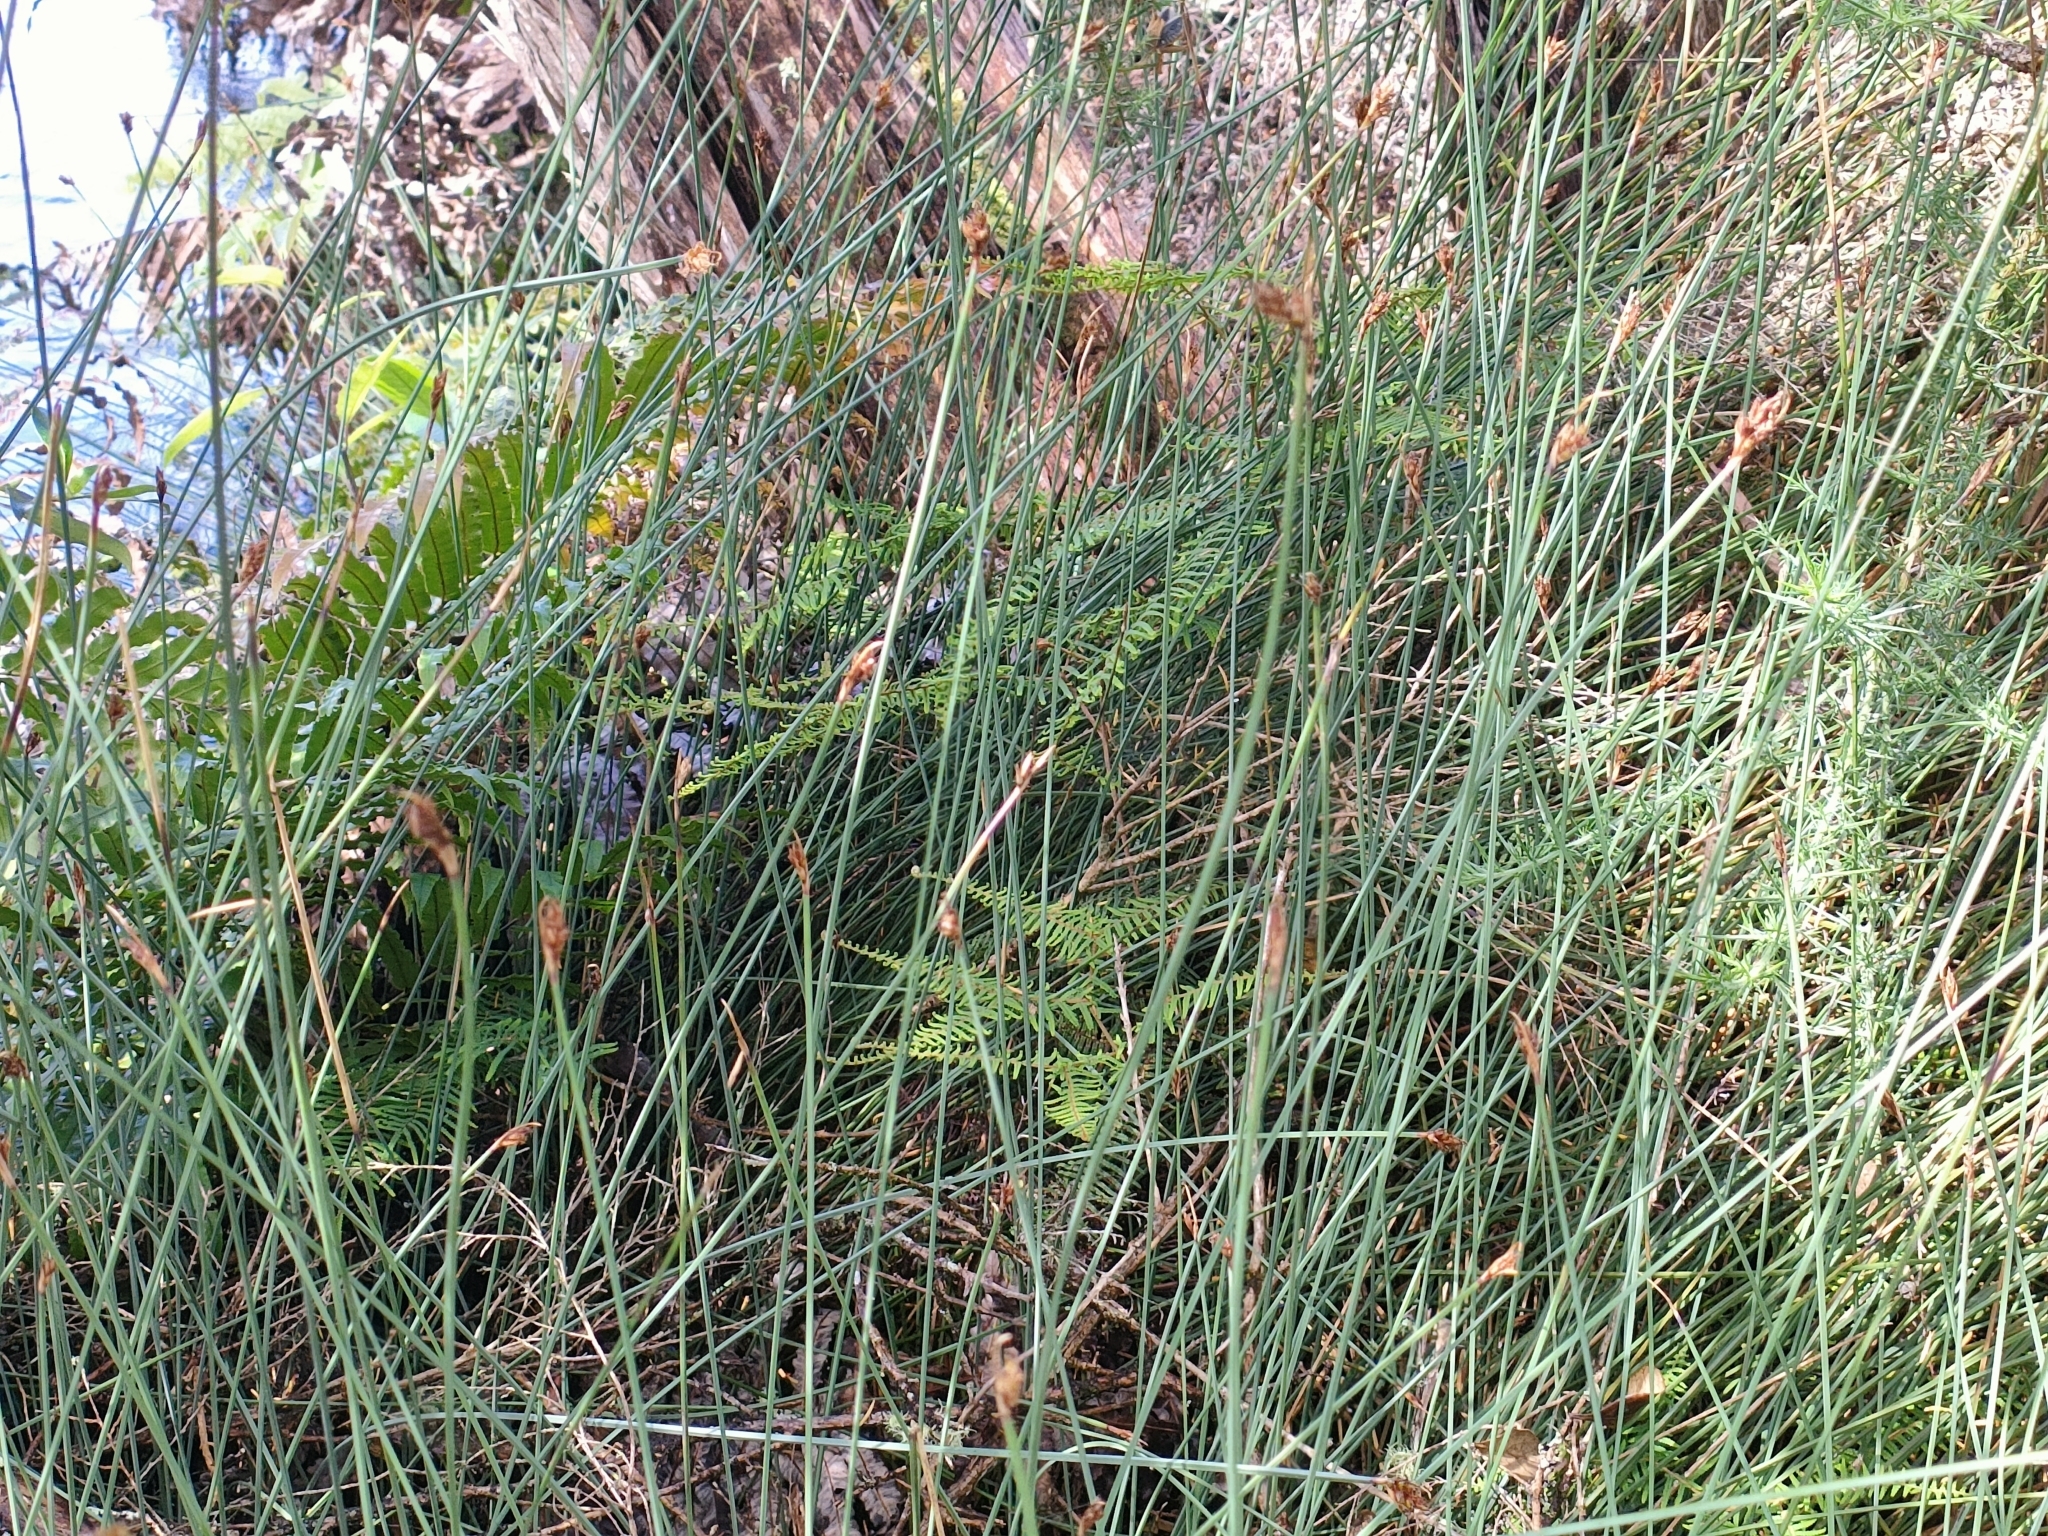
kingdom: Plantae
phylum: Tracheophyta
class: Liliopsida
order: Poales
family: Cyperaceae
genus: Lepidosperma
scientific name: Lepidosperma australe
